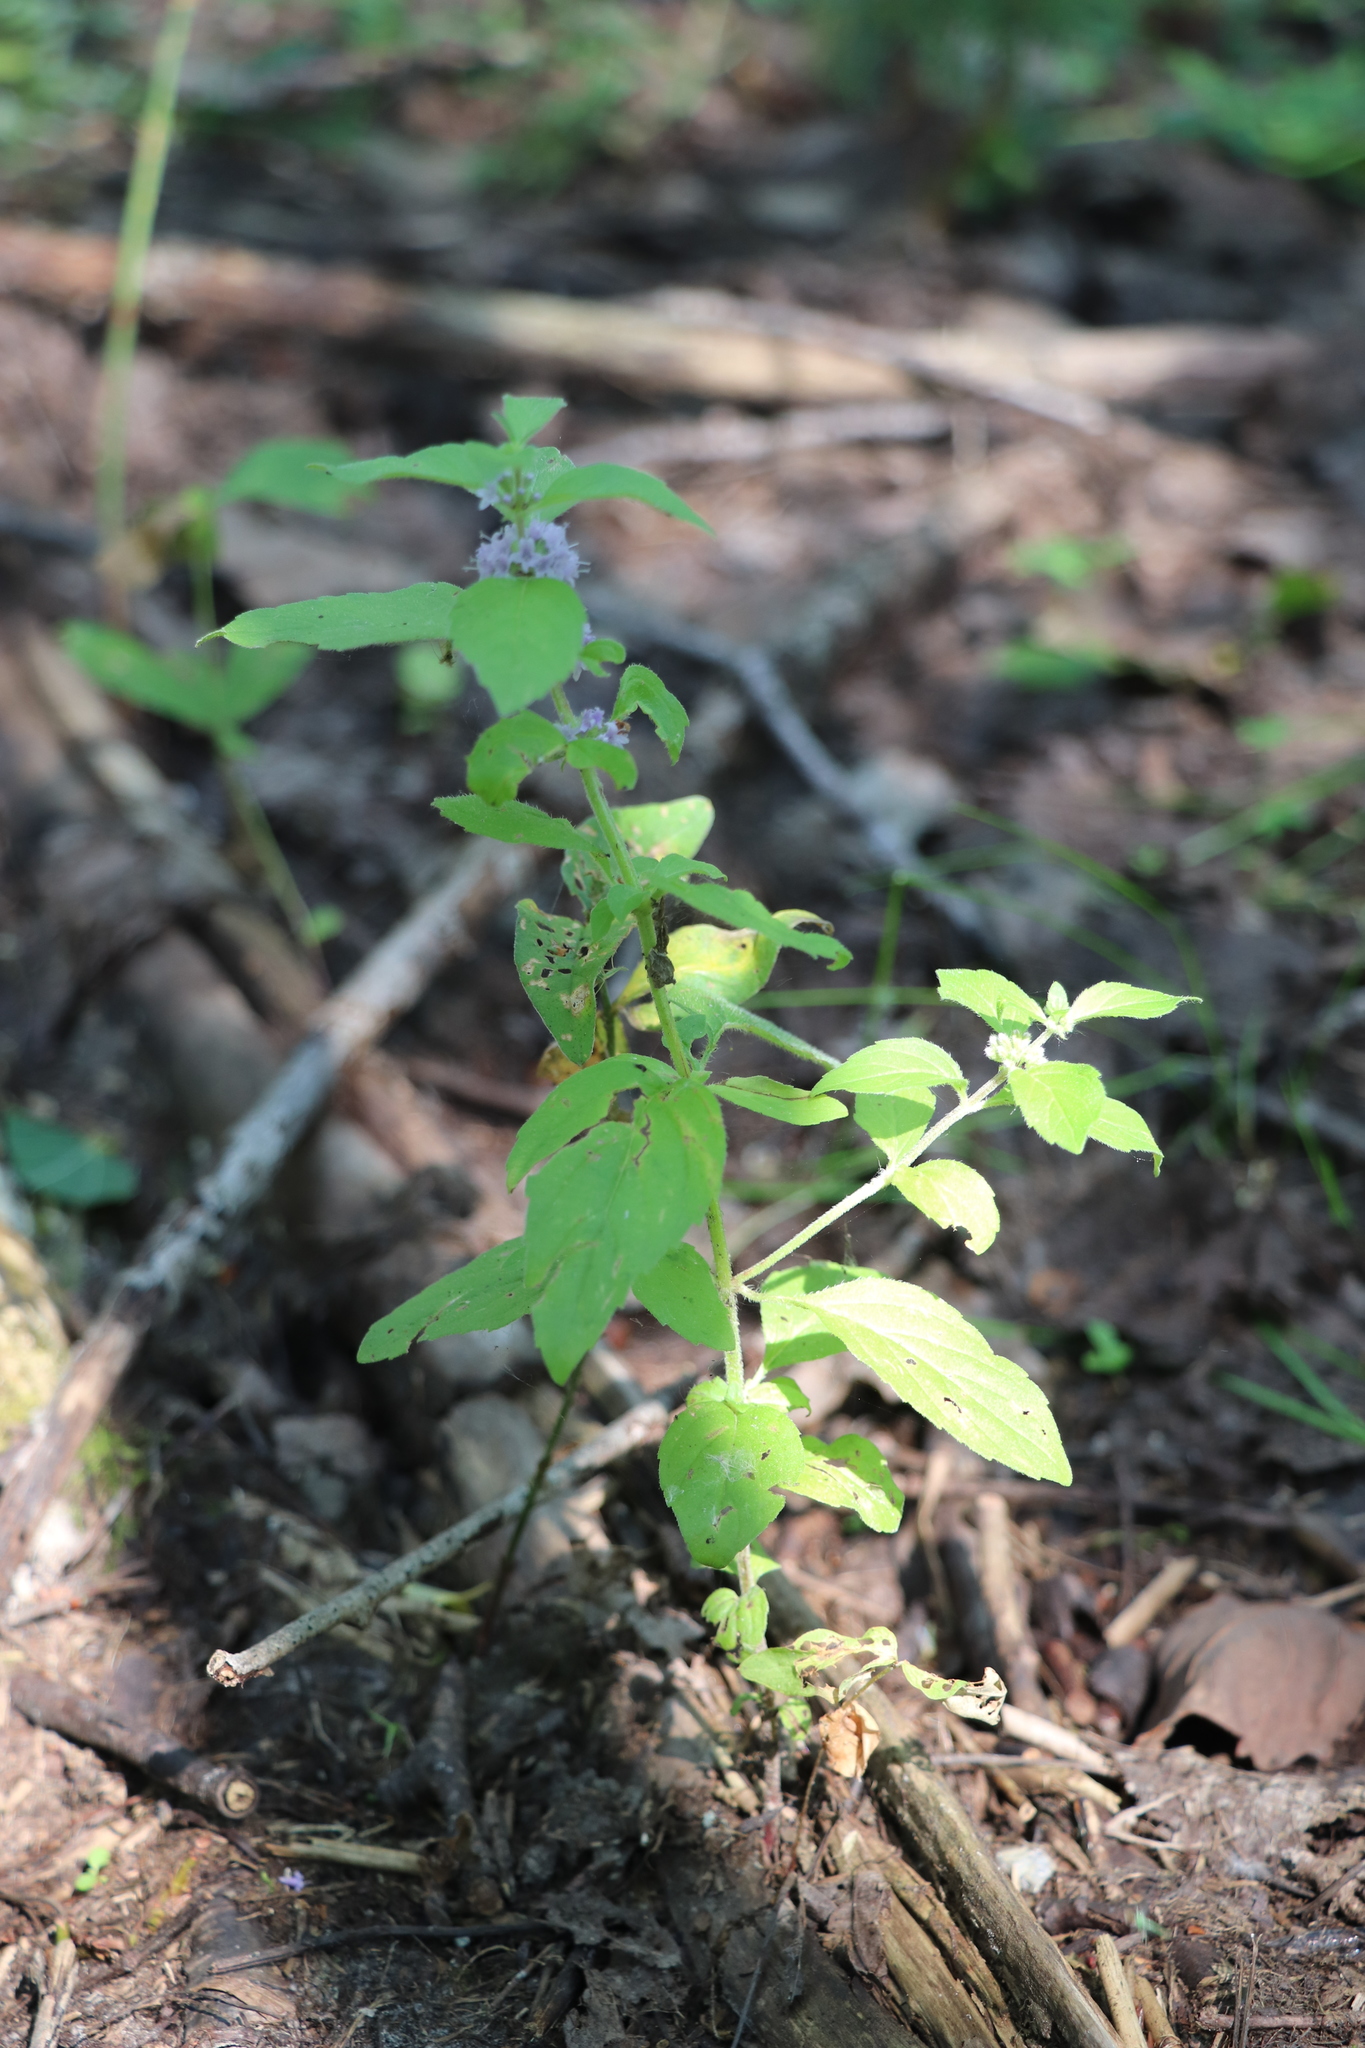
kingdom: Plantae
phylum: Tracheophyta
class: Magnoliopsida
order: Lamiales
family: Lamiaceae
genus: Mentha
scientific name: Mentha arvensis
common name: Corn mint
